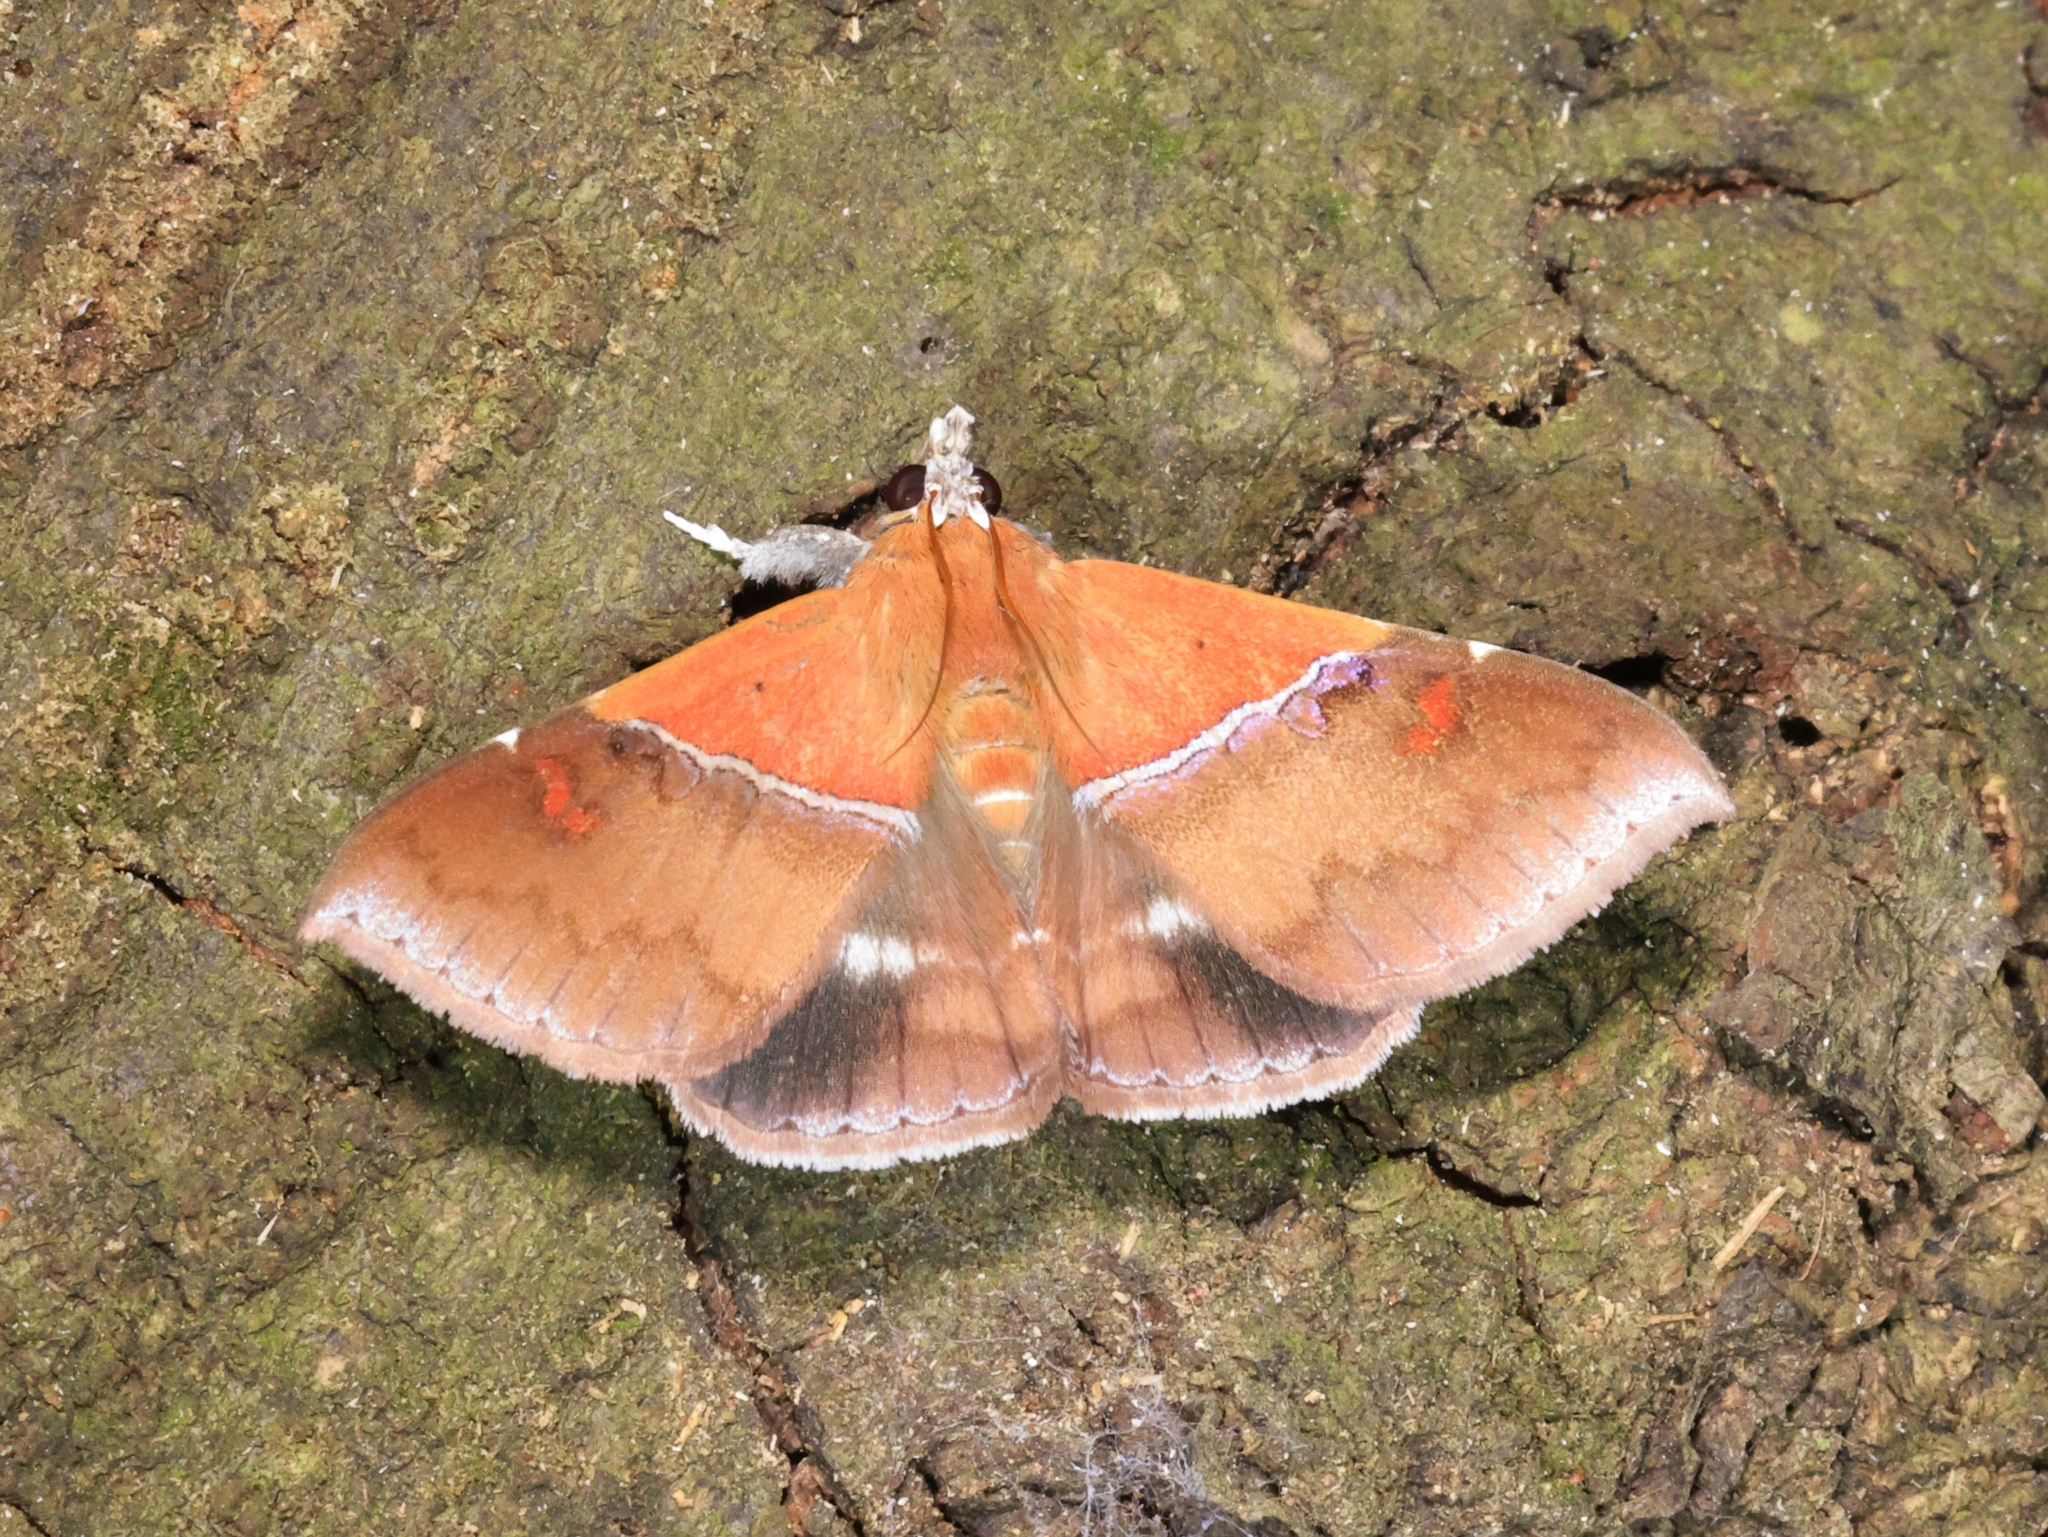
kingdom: Animalia
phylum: Arthropoda
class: Insecta
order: Lepidoptera
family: Erebidae
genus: Sympis
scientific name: Sympis rufibasis
